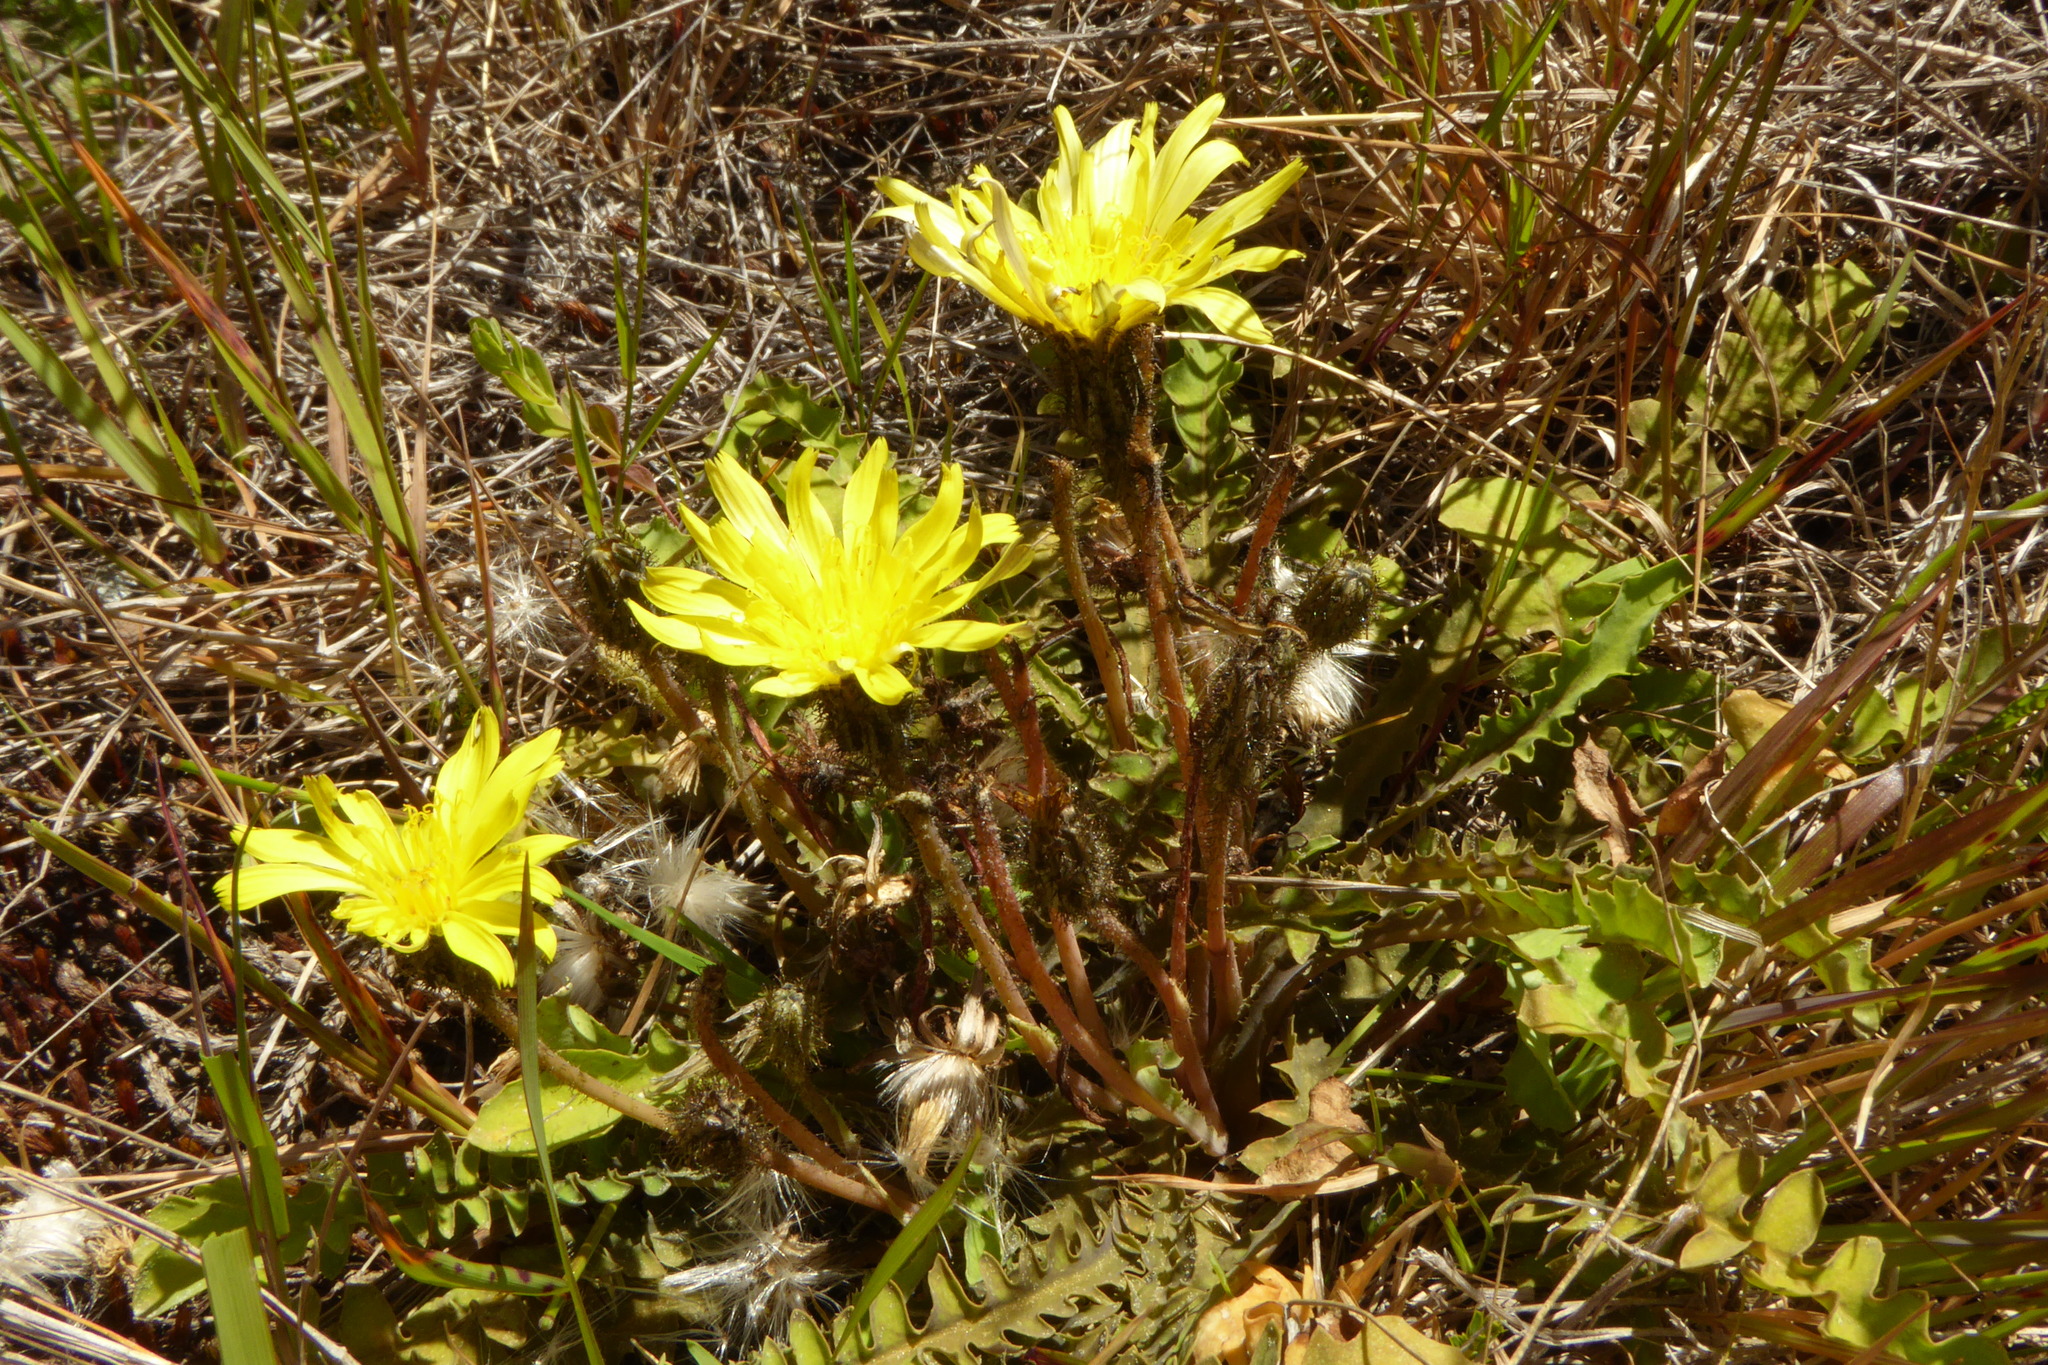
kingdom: Plantae
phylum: Tracheophyta
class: Magnoliopsida
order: Asterales
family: Asteraceae
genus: Sonchus
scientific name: Sonchus novae-zelandiae
